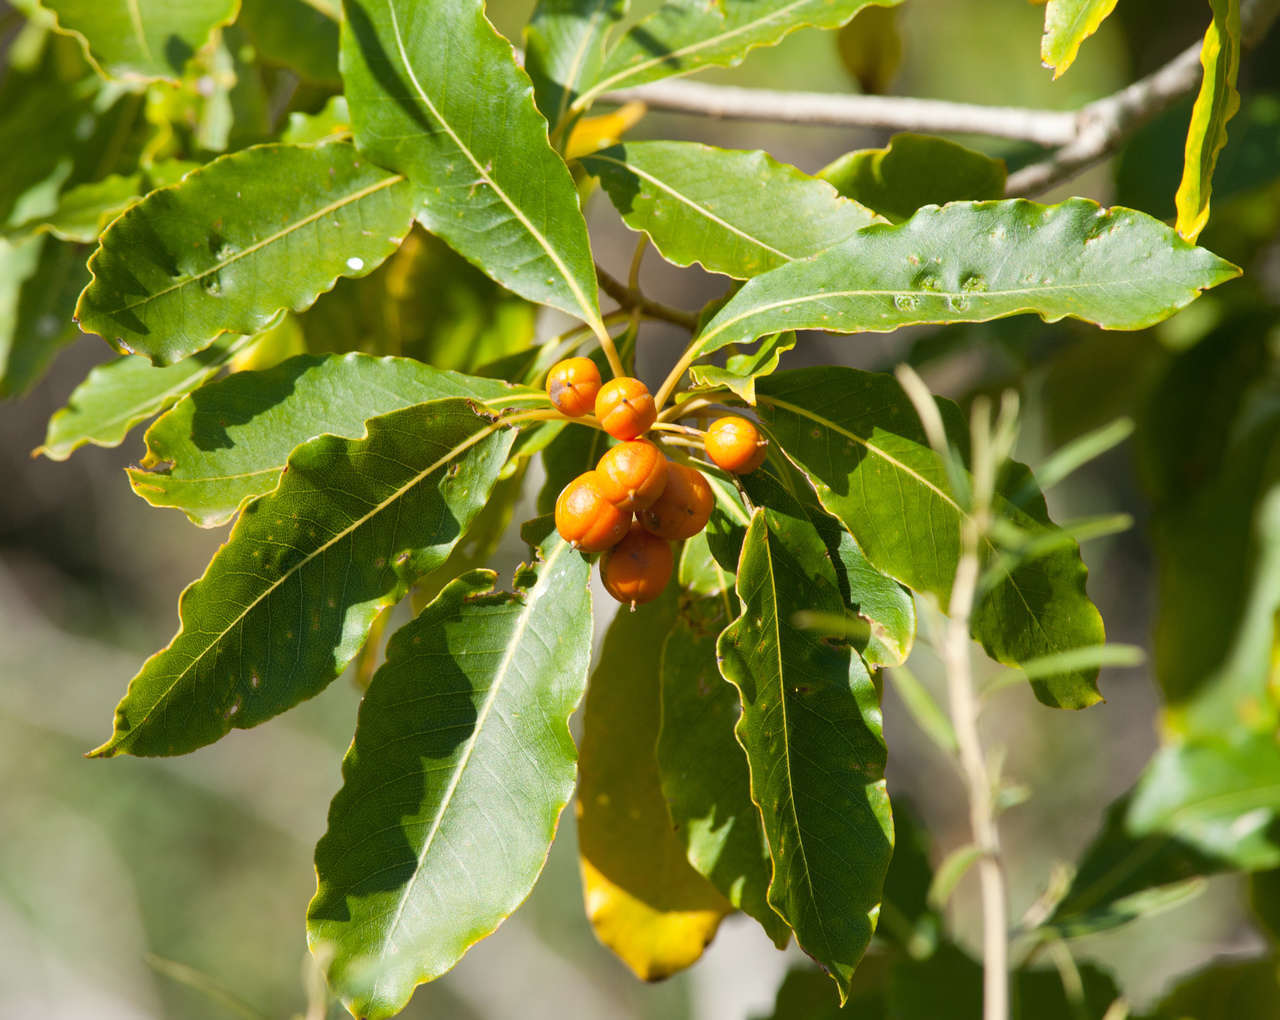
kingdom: Plantae
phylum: Tracheophyta
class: Magnoliopsida
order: Apiales
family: Pittosporaceae
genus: Pittosporum
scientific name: Pittosporum undulatum
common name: Australian cheesewood
